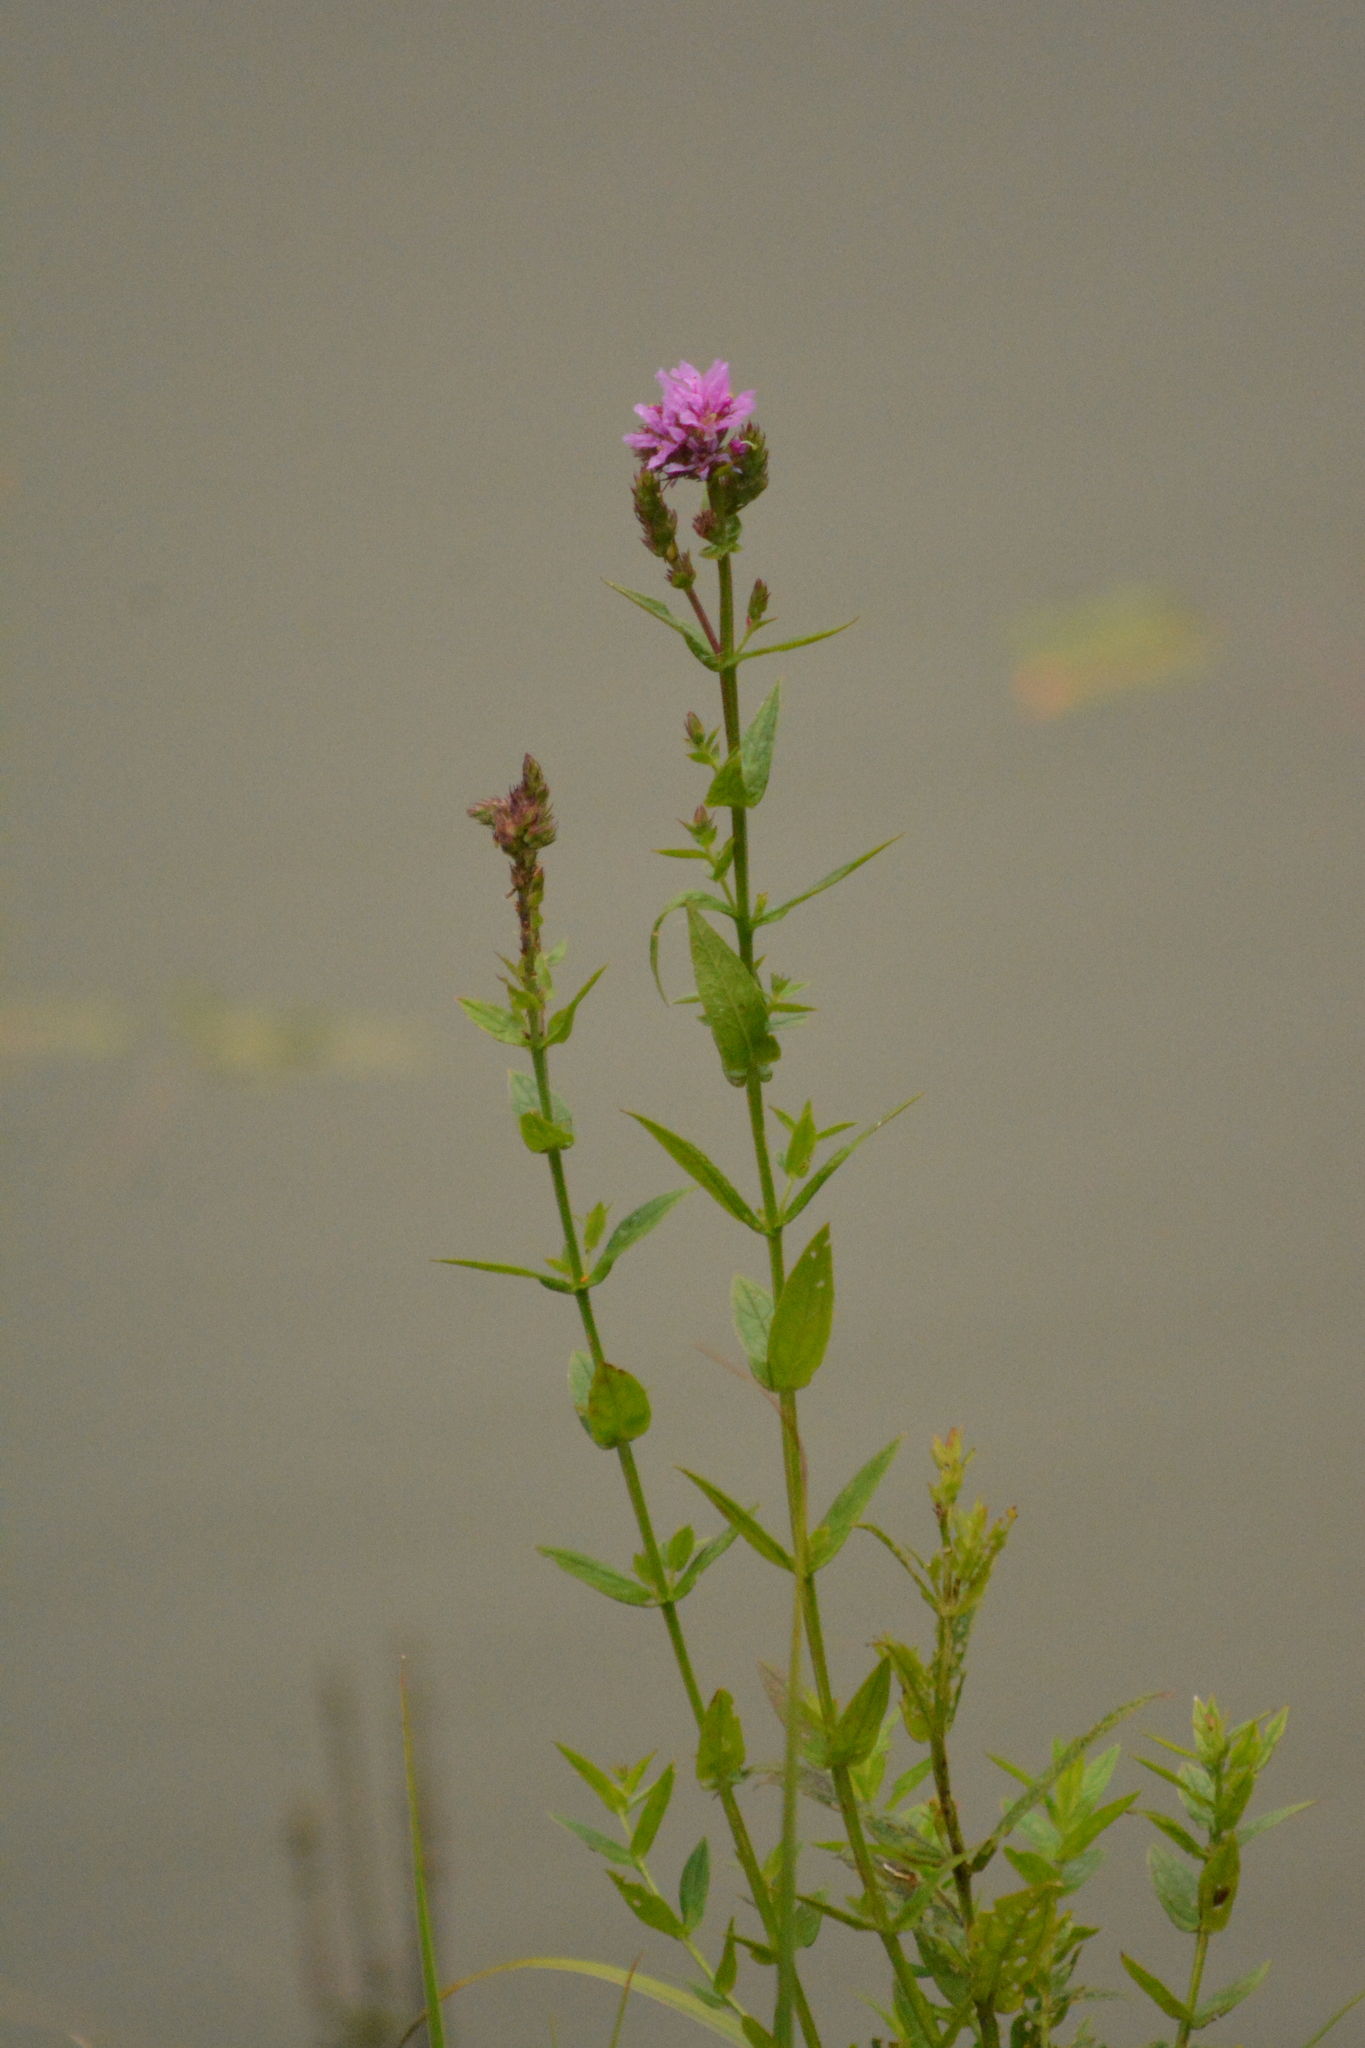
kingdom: Plantae
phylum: Tracheophyta
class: Magnoliopsida
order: Myrtales
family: Lythraceae
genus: Lythrum
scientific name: Lythrum salicaria
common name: Purple loosestrife
